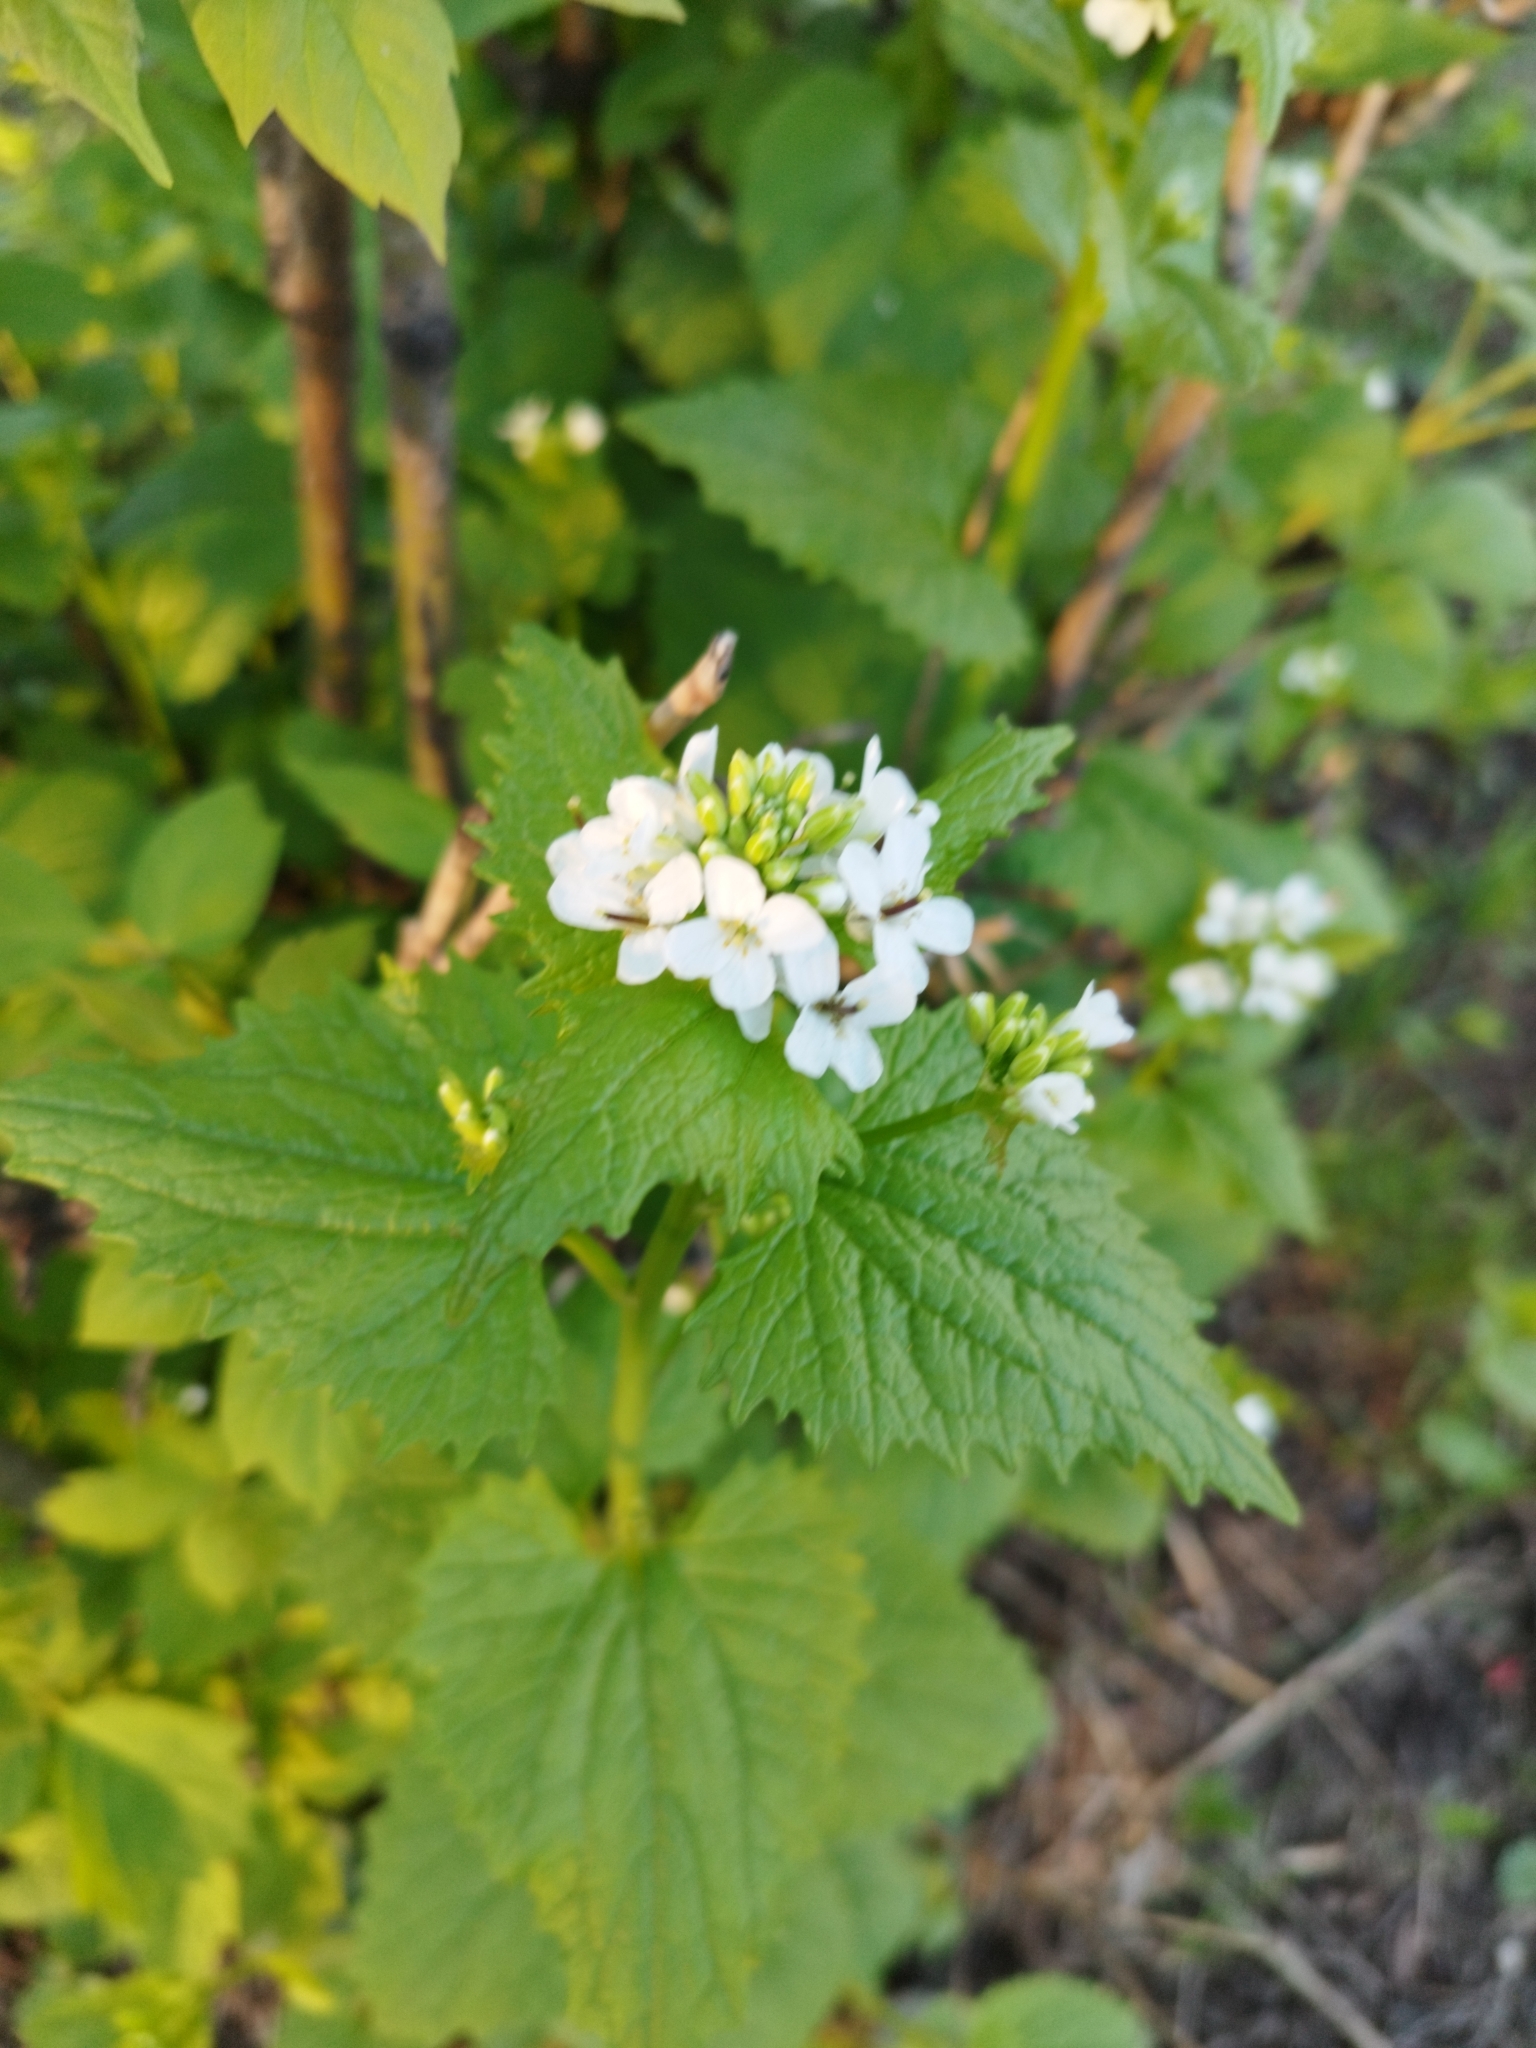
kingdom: Plantae
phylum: Tracheophyta
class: Magnoliopsida
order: Brassicales
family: Brassicaceae
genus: Alliaria
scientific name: Alliaria petiolata
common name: Garlic mustard
